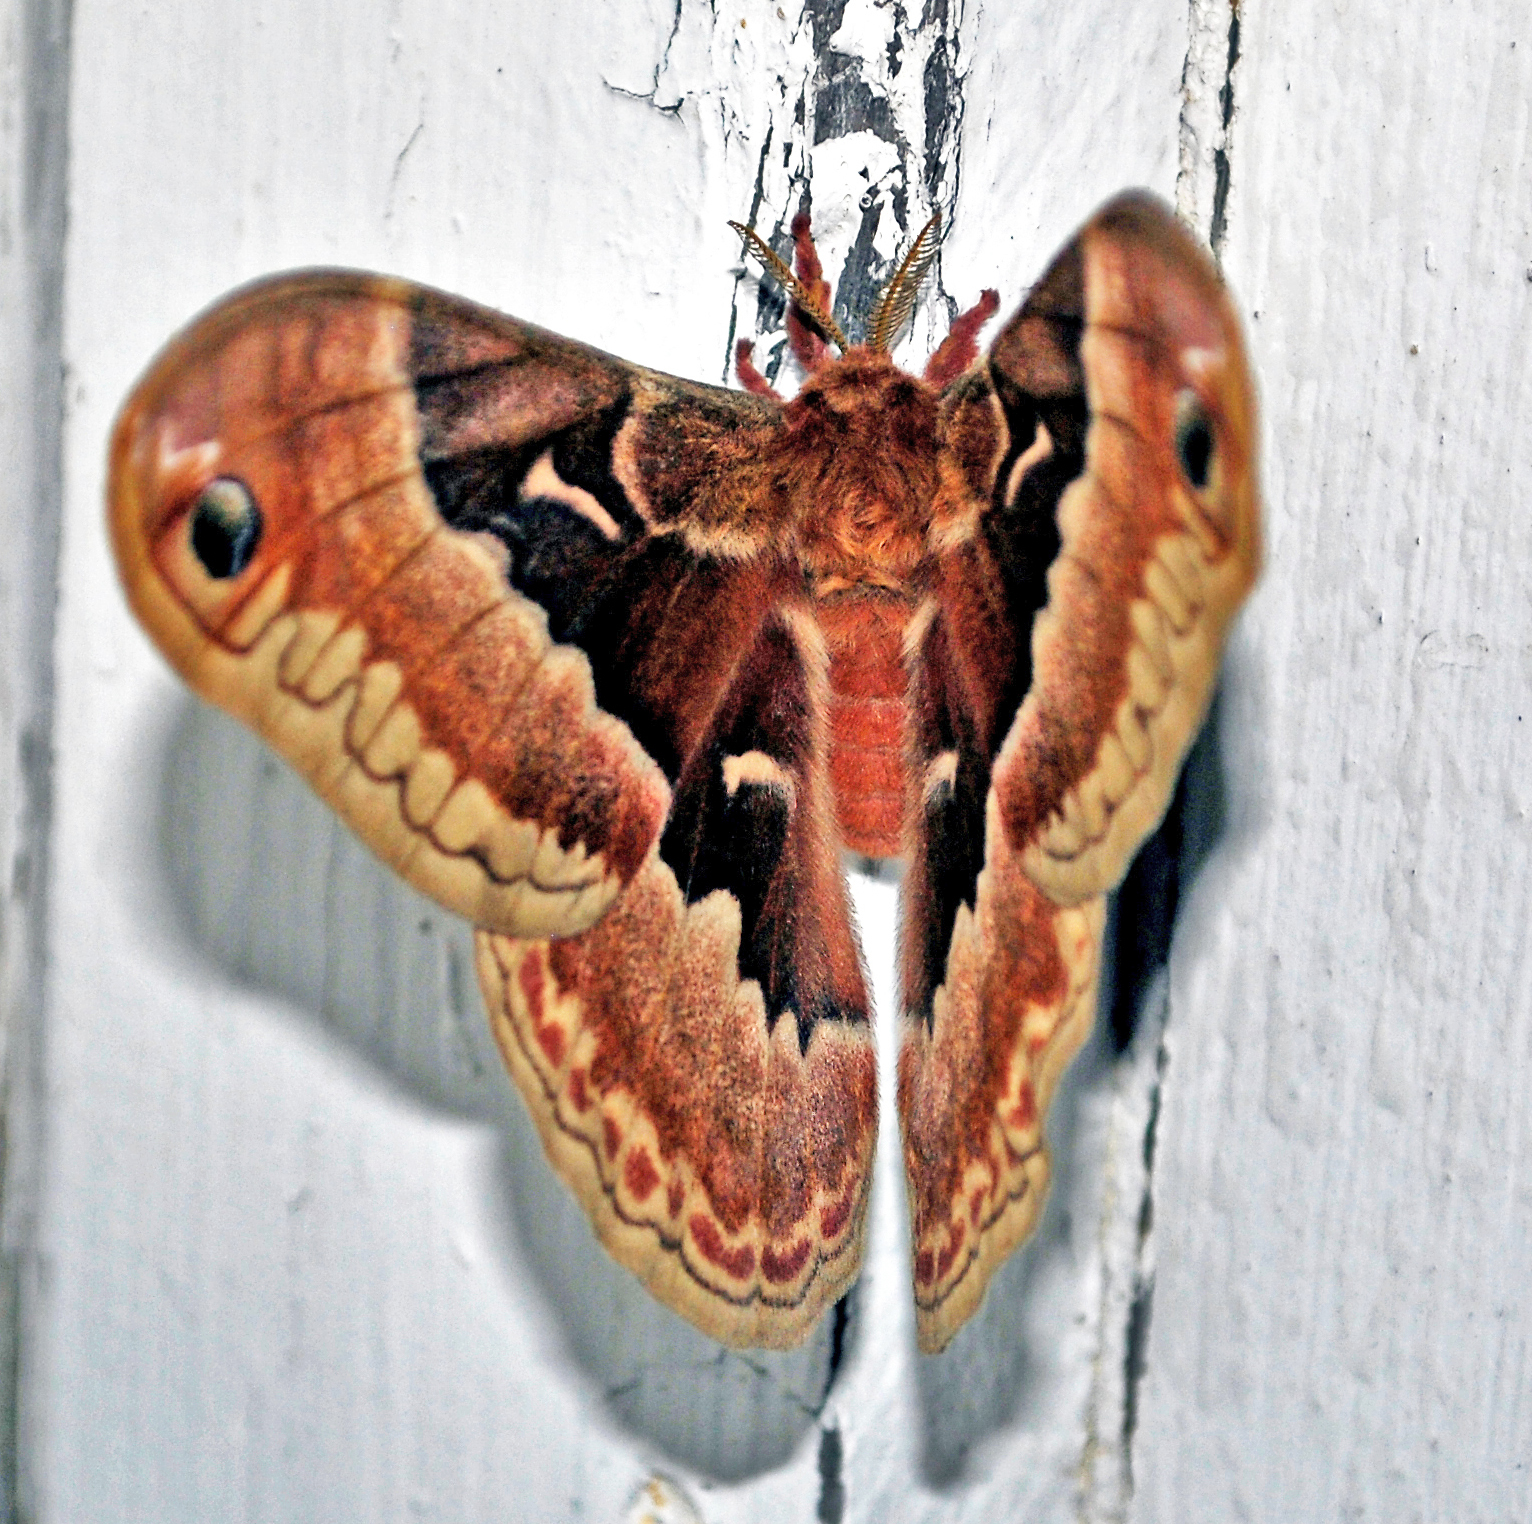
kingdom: Animalia
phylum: Arthropoda
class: Insecta
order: Lepidoptera
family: Saturniidae
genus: Callosamia
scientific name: Callosamia promethea
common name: Promethea silkmoth
